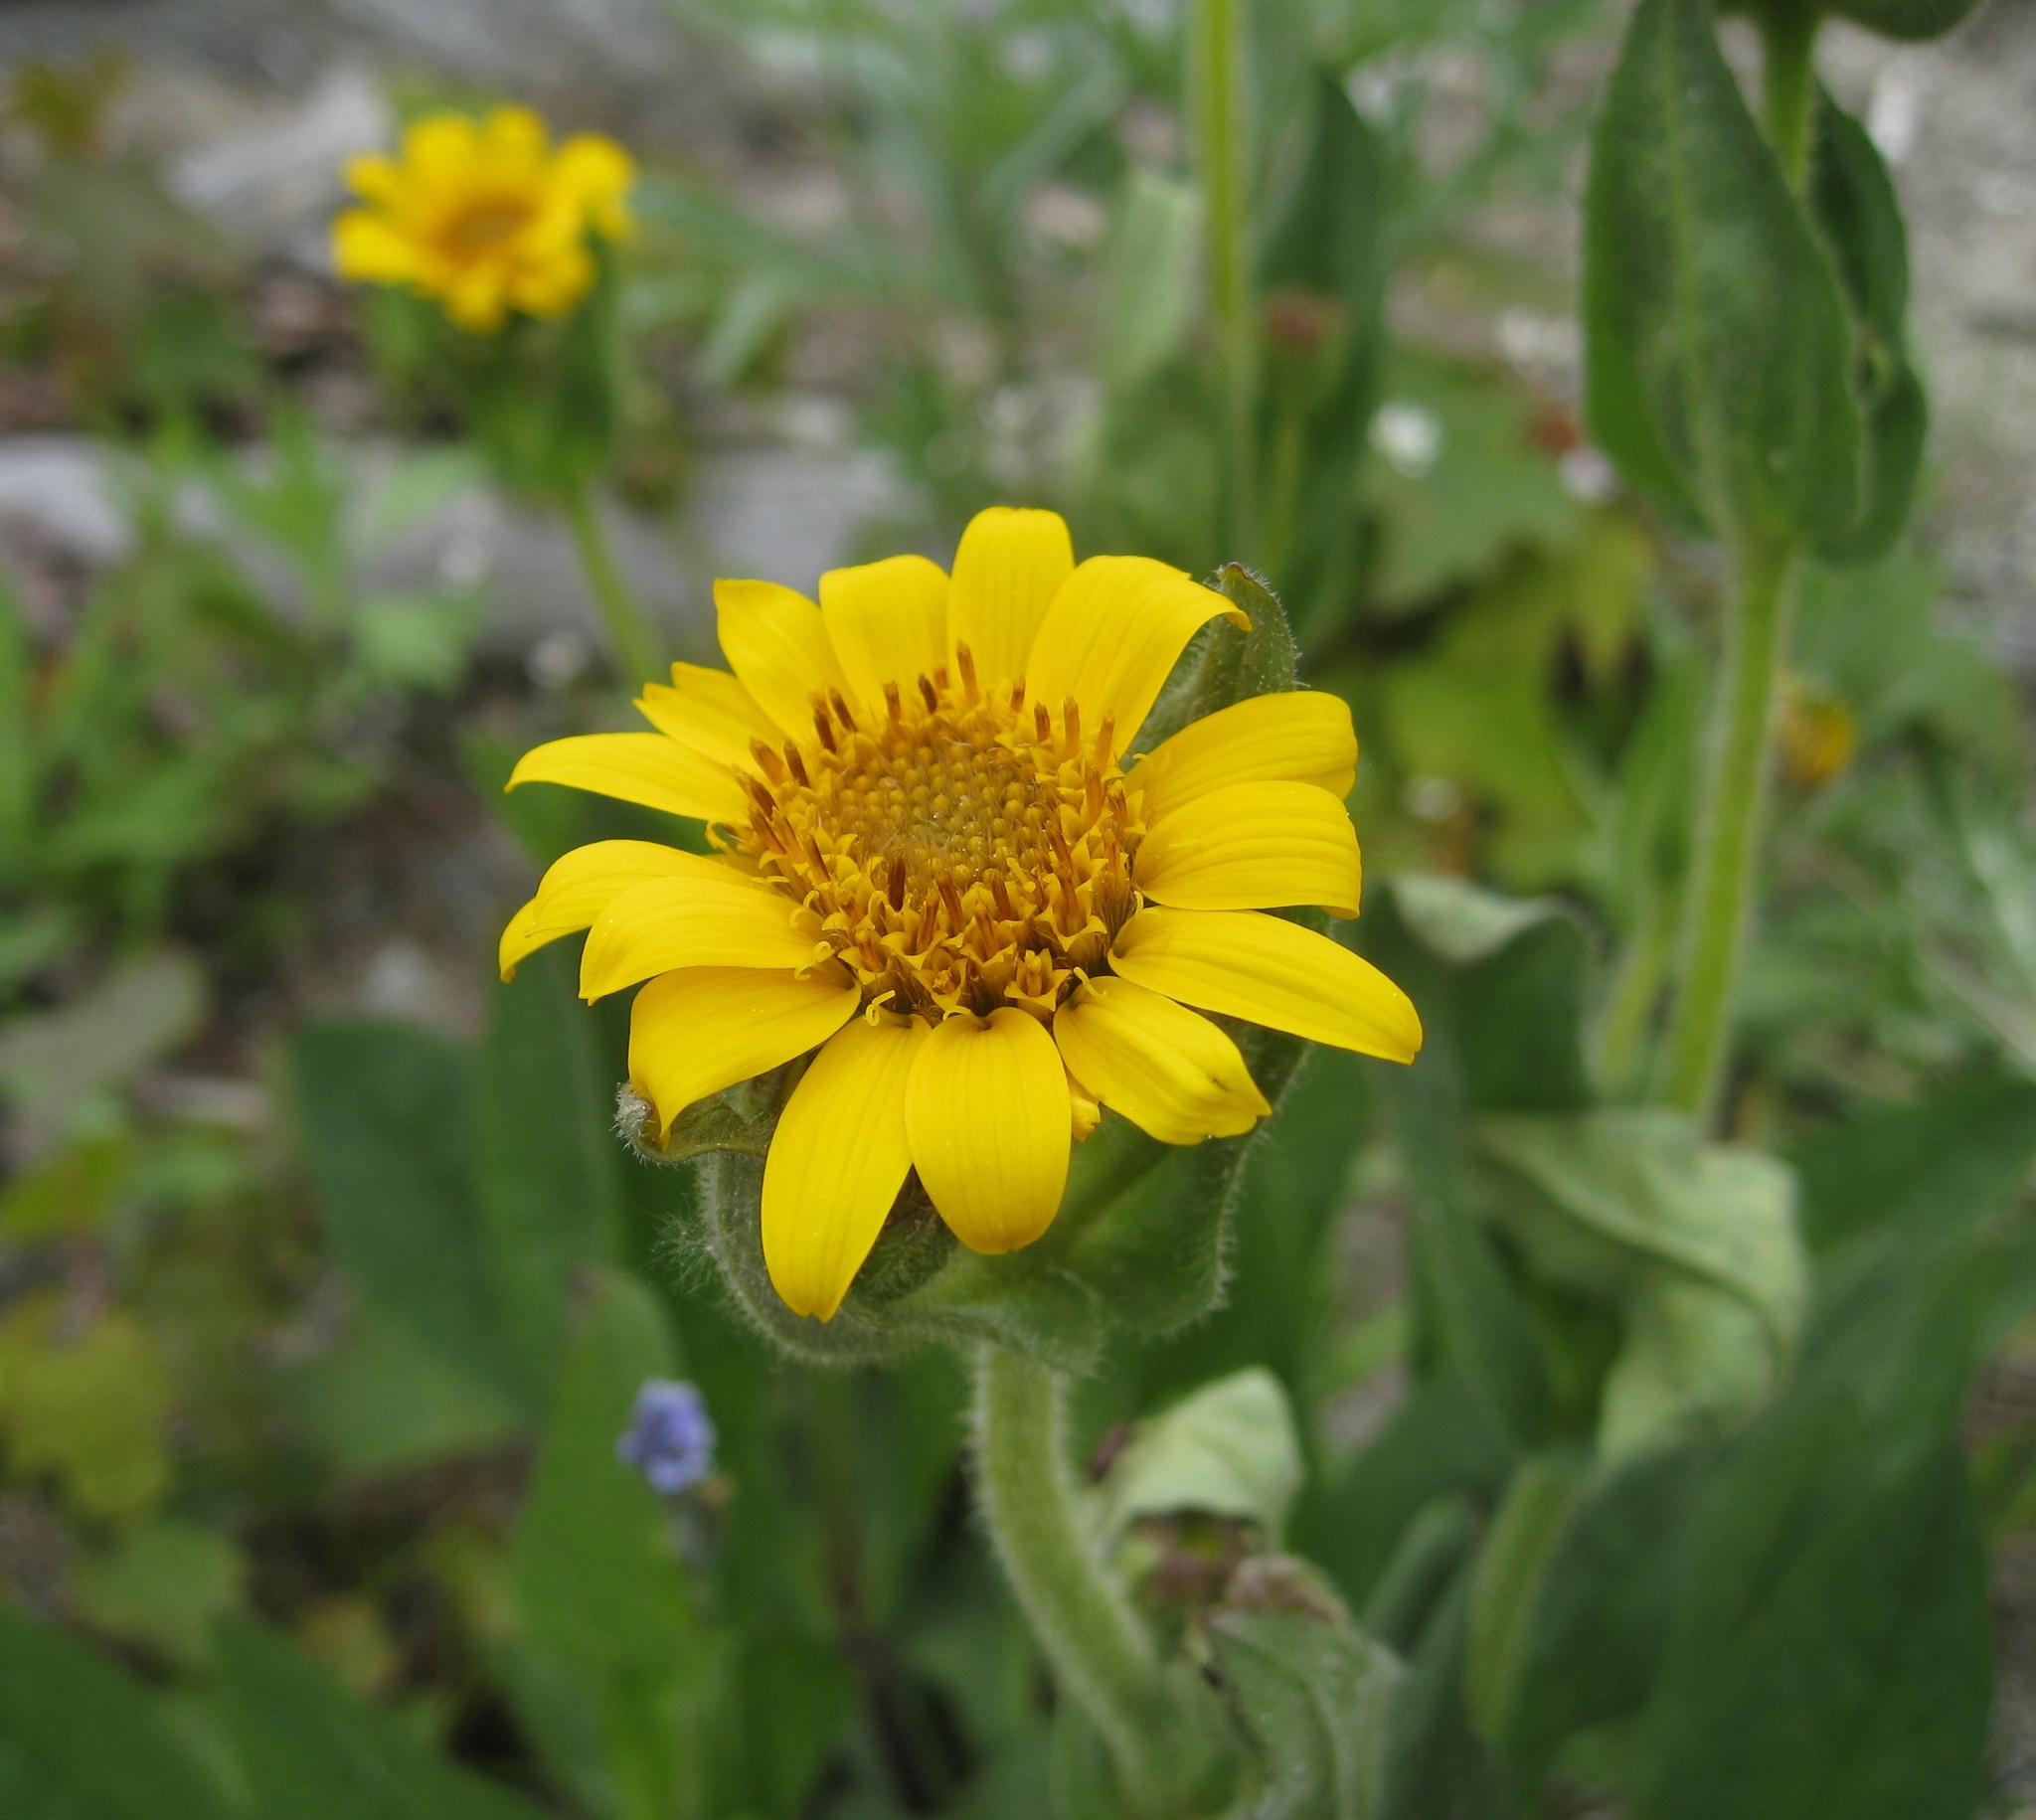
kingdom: Plantae
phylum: Tracheophyta
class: Magnoliopsida
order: Asterales
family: Asteraceae
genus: Arnica
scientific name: Arnica longifolia
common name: Spear-leaf arnica
